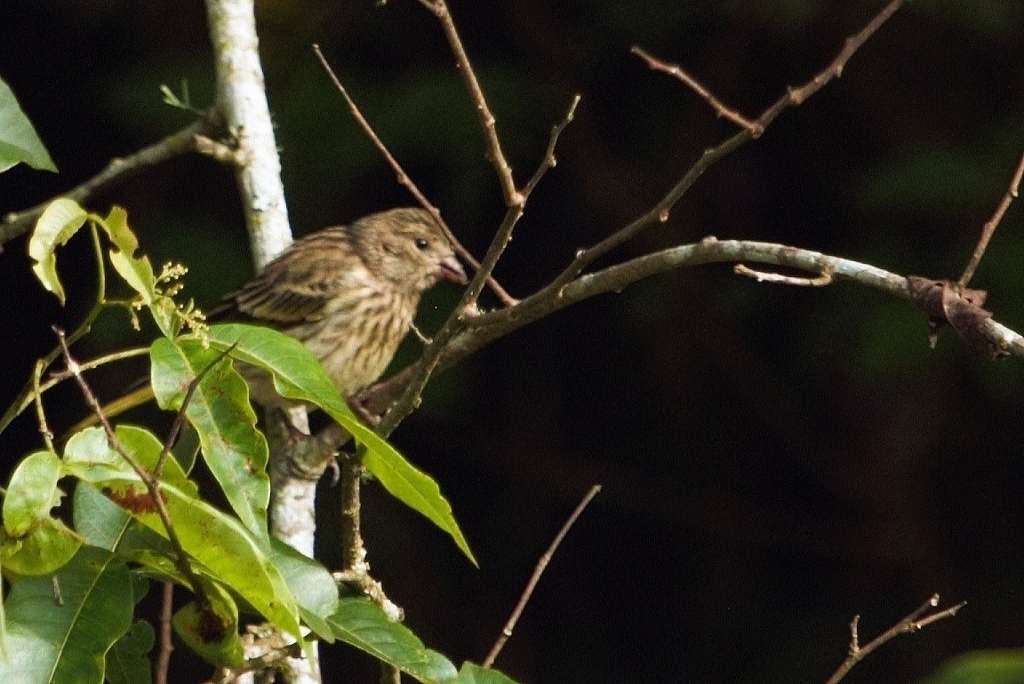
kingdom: Animalia
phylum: Chordata
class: Aves
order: Passeriformes
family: Fringillidae
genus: Serinus
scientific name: Serinus canicollis
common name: Cape canary
